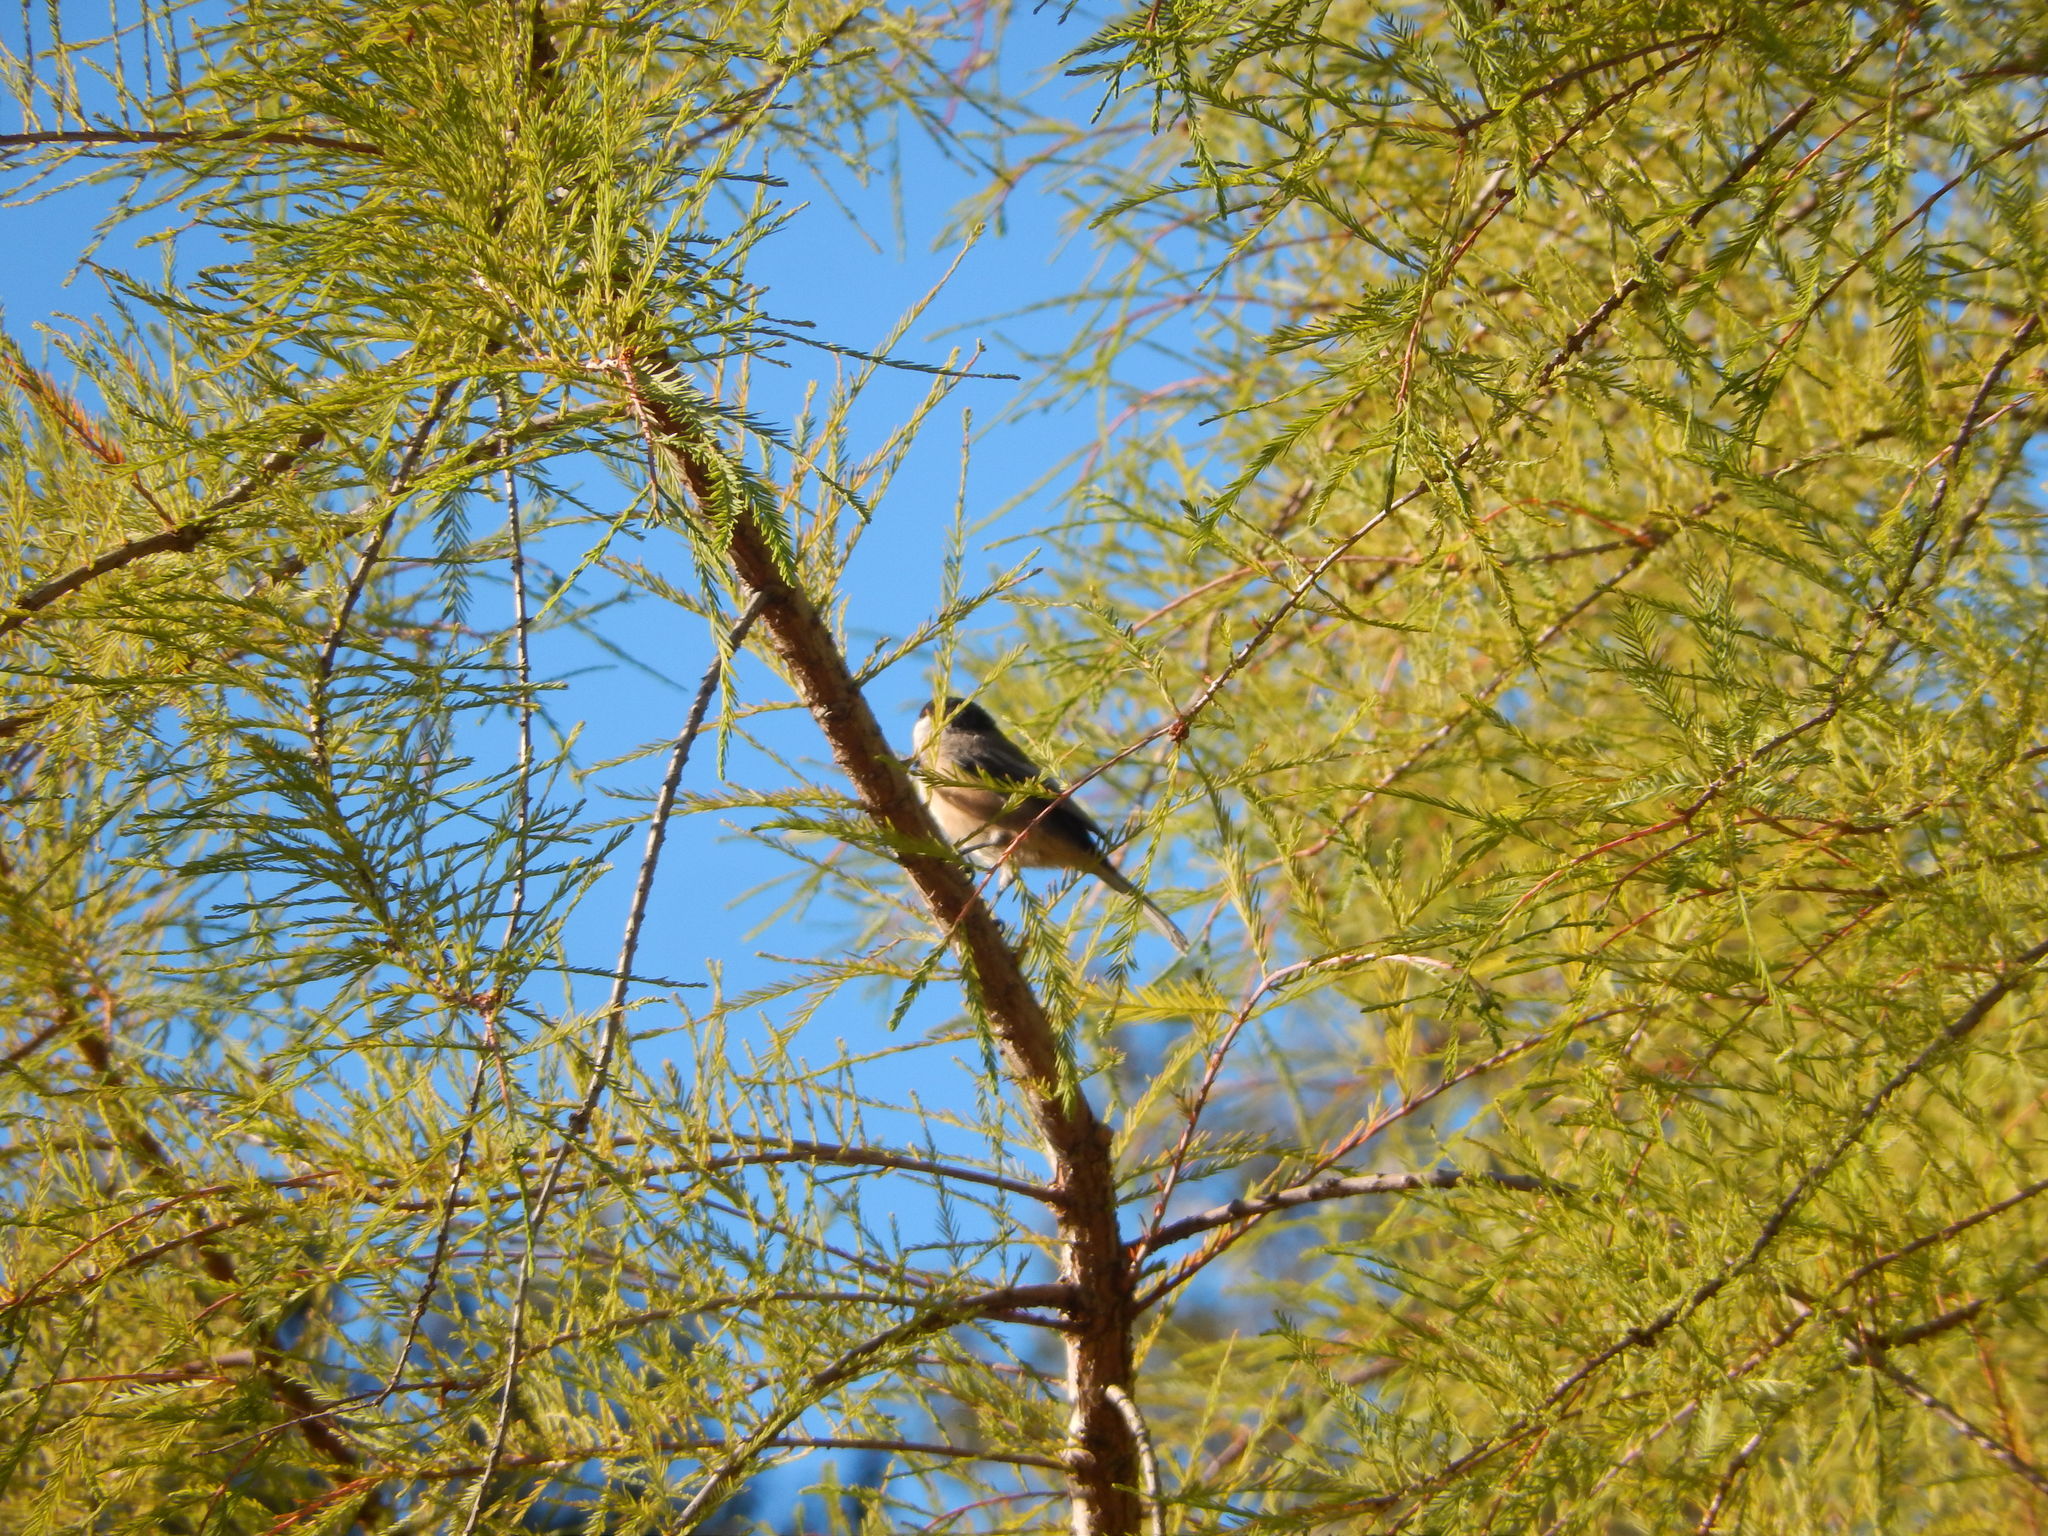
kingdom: Animalia
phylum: Chordata
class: Aves
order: Passeriformes
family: Paridae
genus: Poecile
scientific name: Poecile atricapillus
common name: Black-capped chickadee
